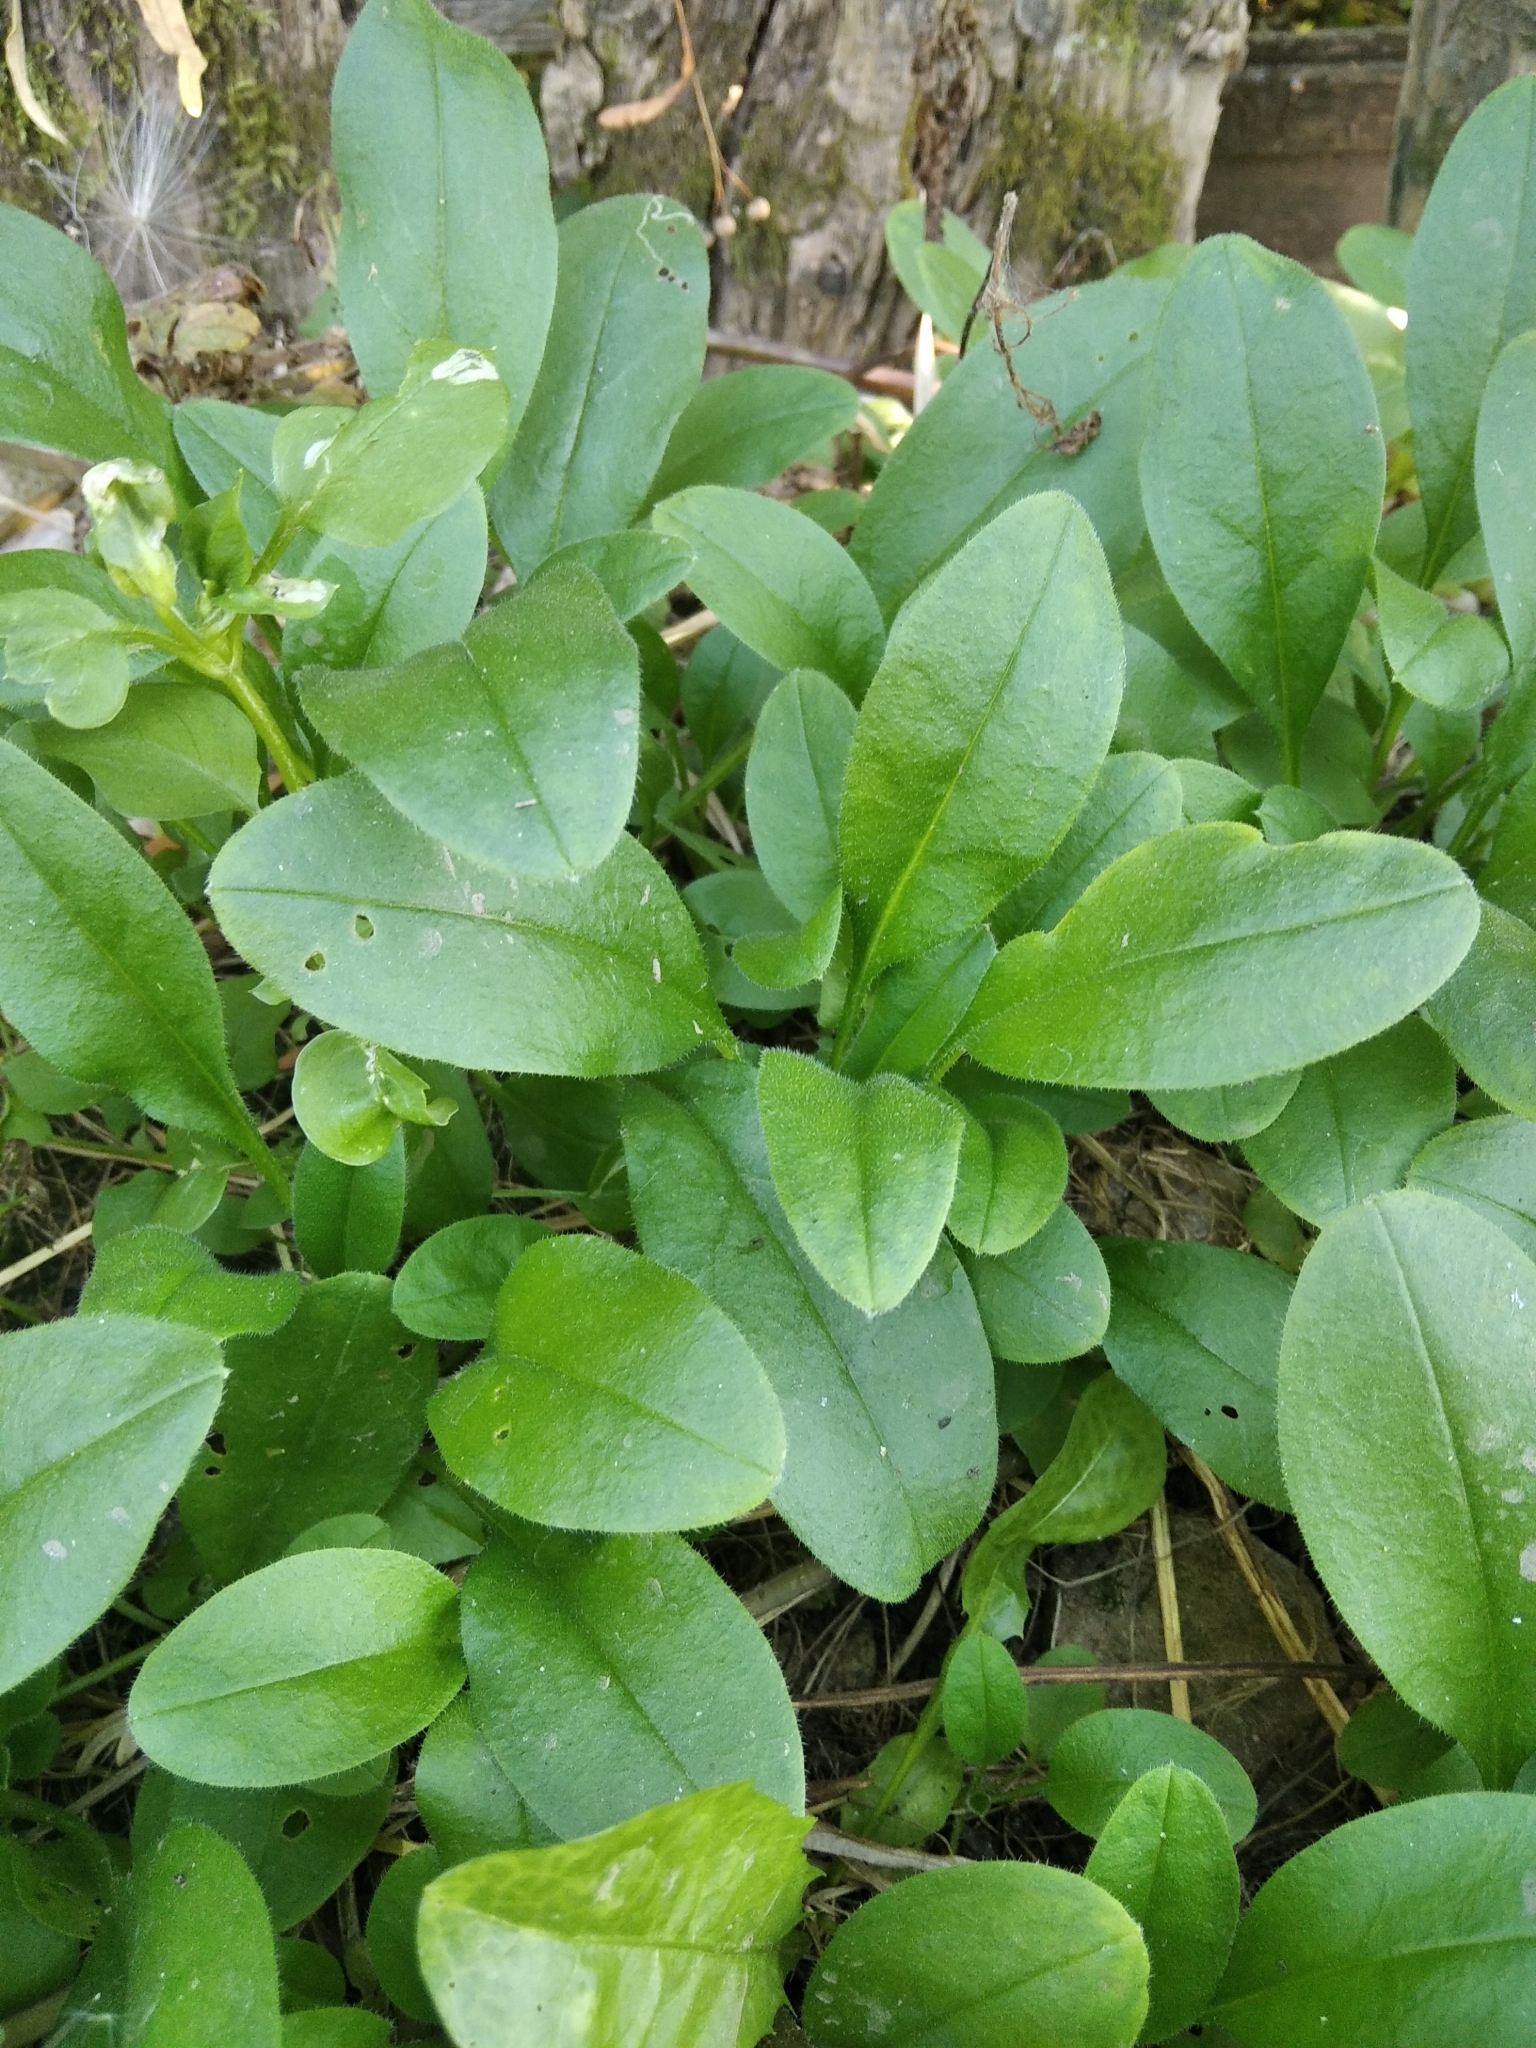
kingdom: Plantae
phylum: Tracheophyta
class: Magnoliopsida
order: Boraginales
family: Boraginaceae
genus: Myosotis
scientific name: Myosotis sparsiflora
